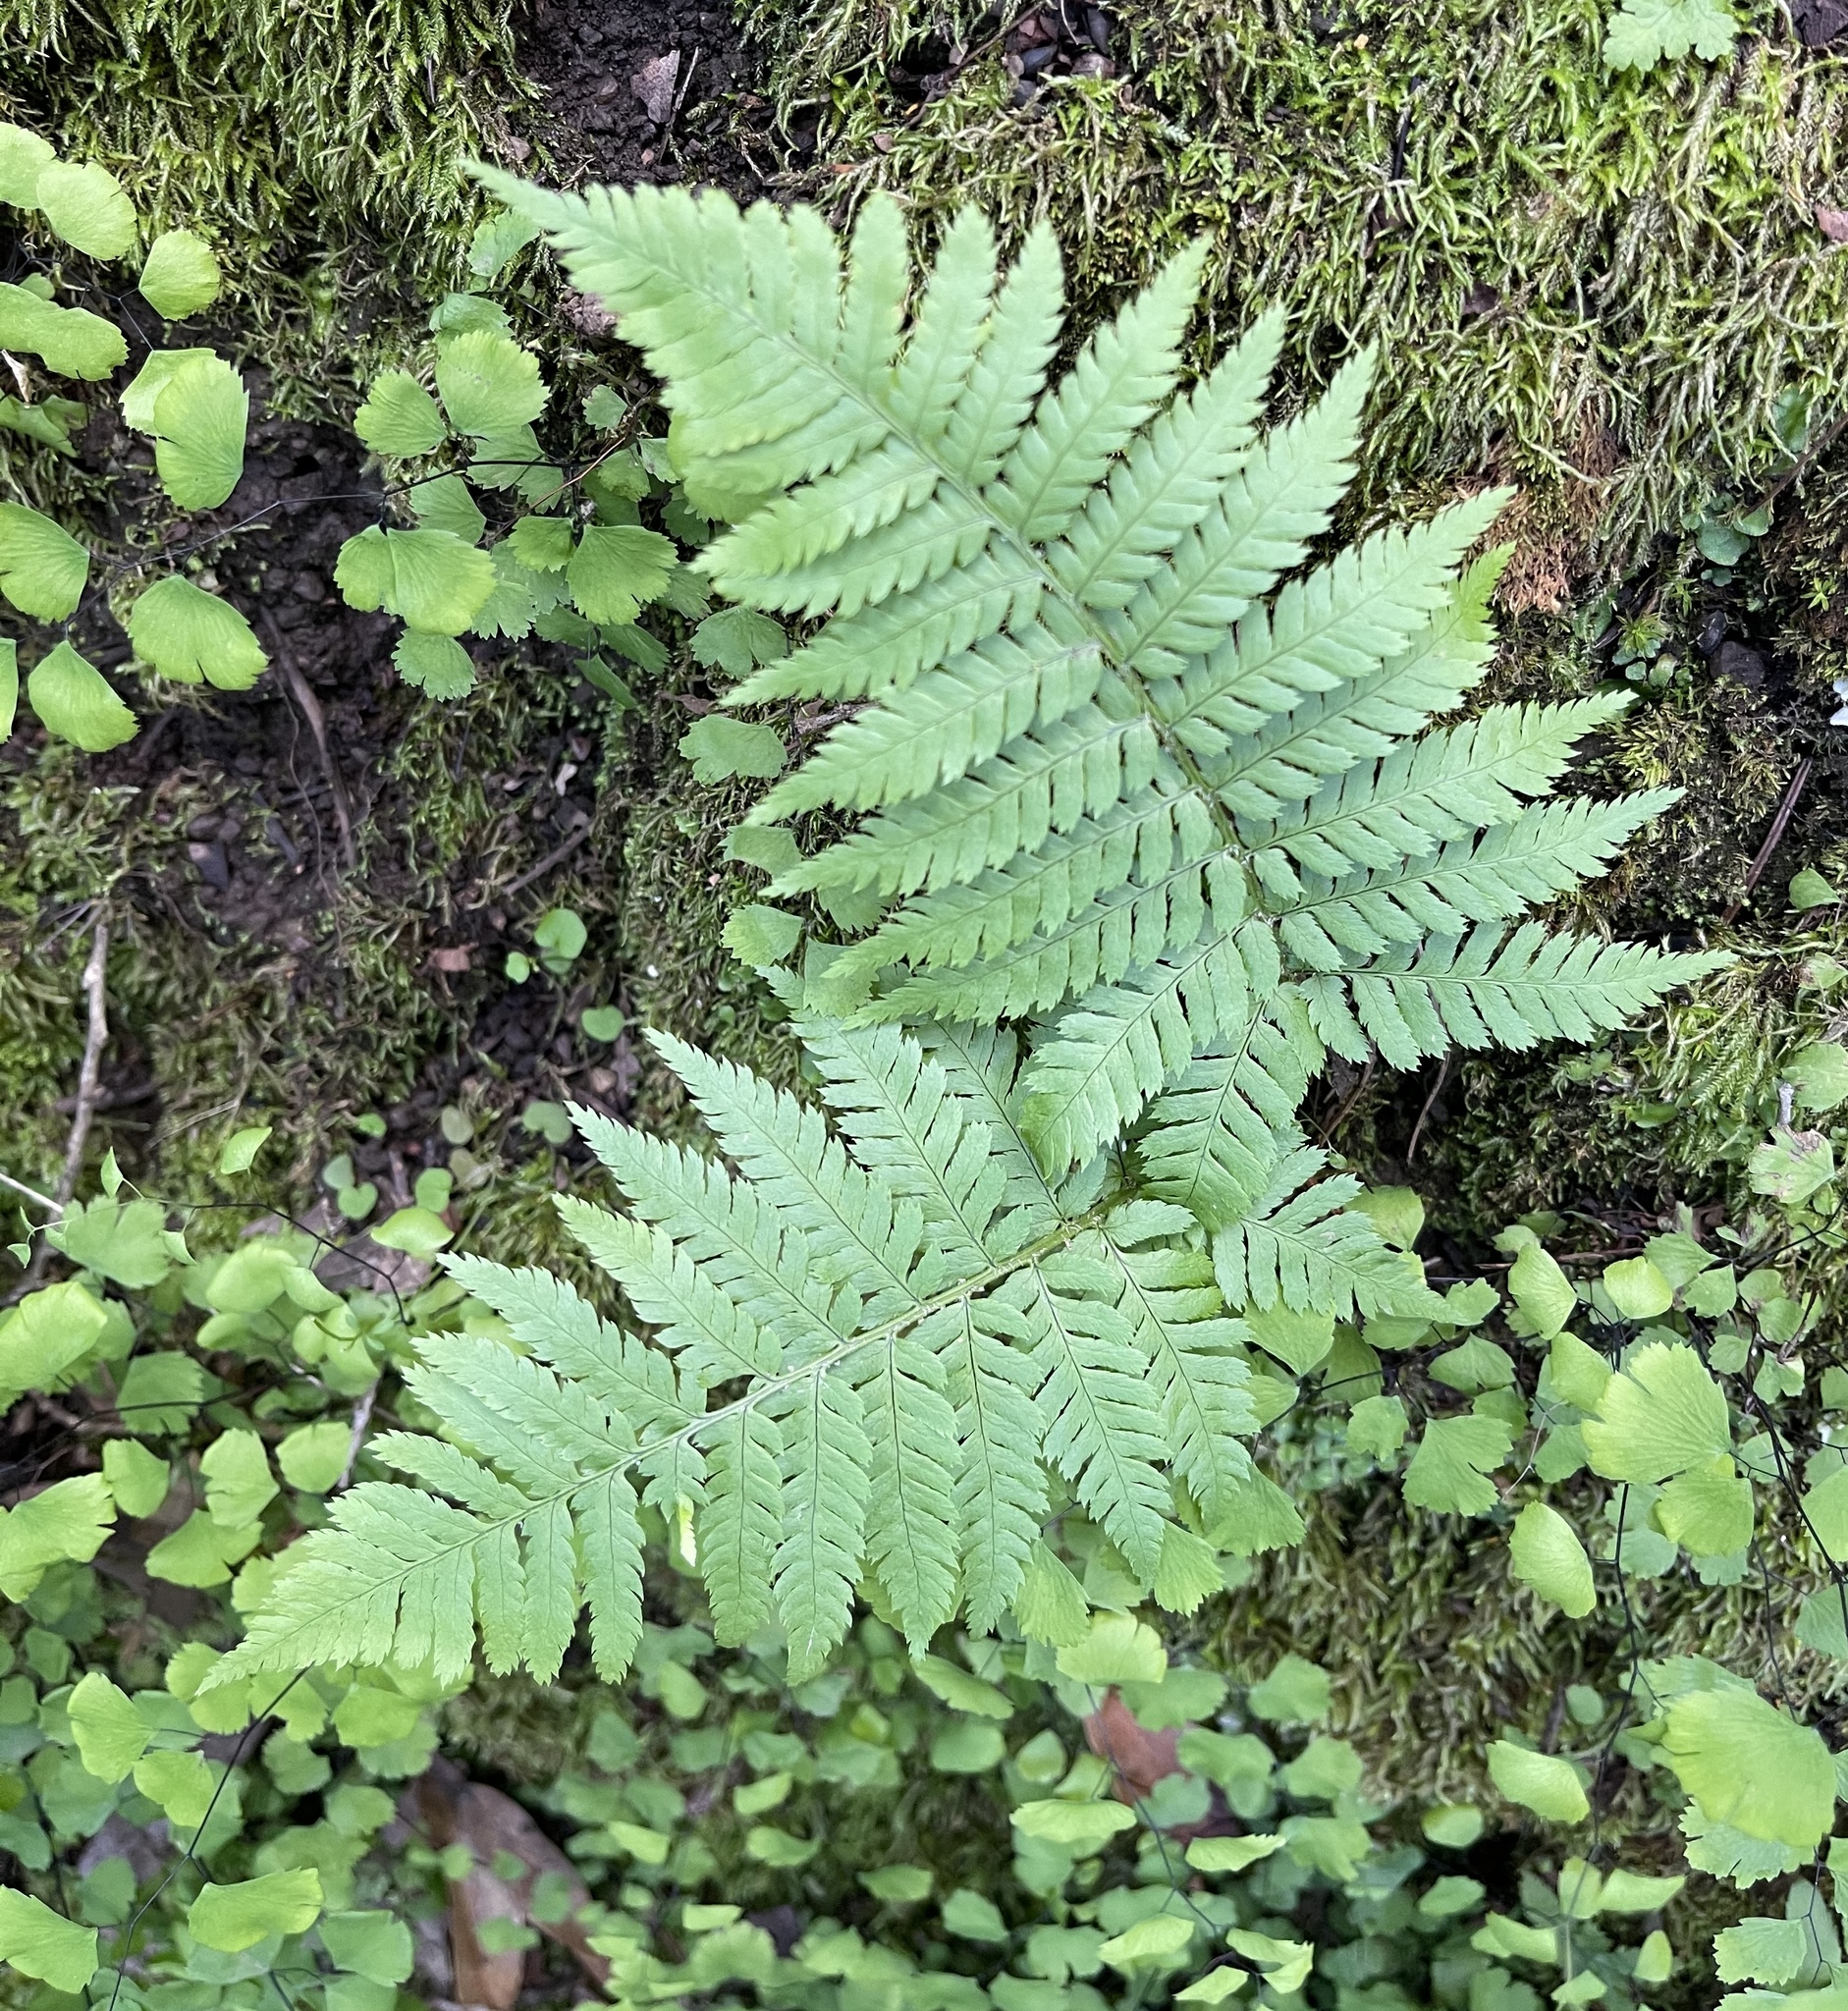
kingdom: Plantae
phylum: Tracheophyta
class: Polypodiopsida
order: Polypodiales
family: Dryopteridaceae
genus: Dryopteris
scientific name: Dryopteris arguta
